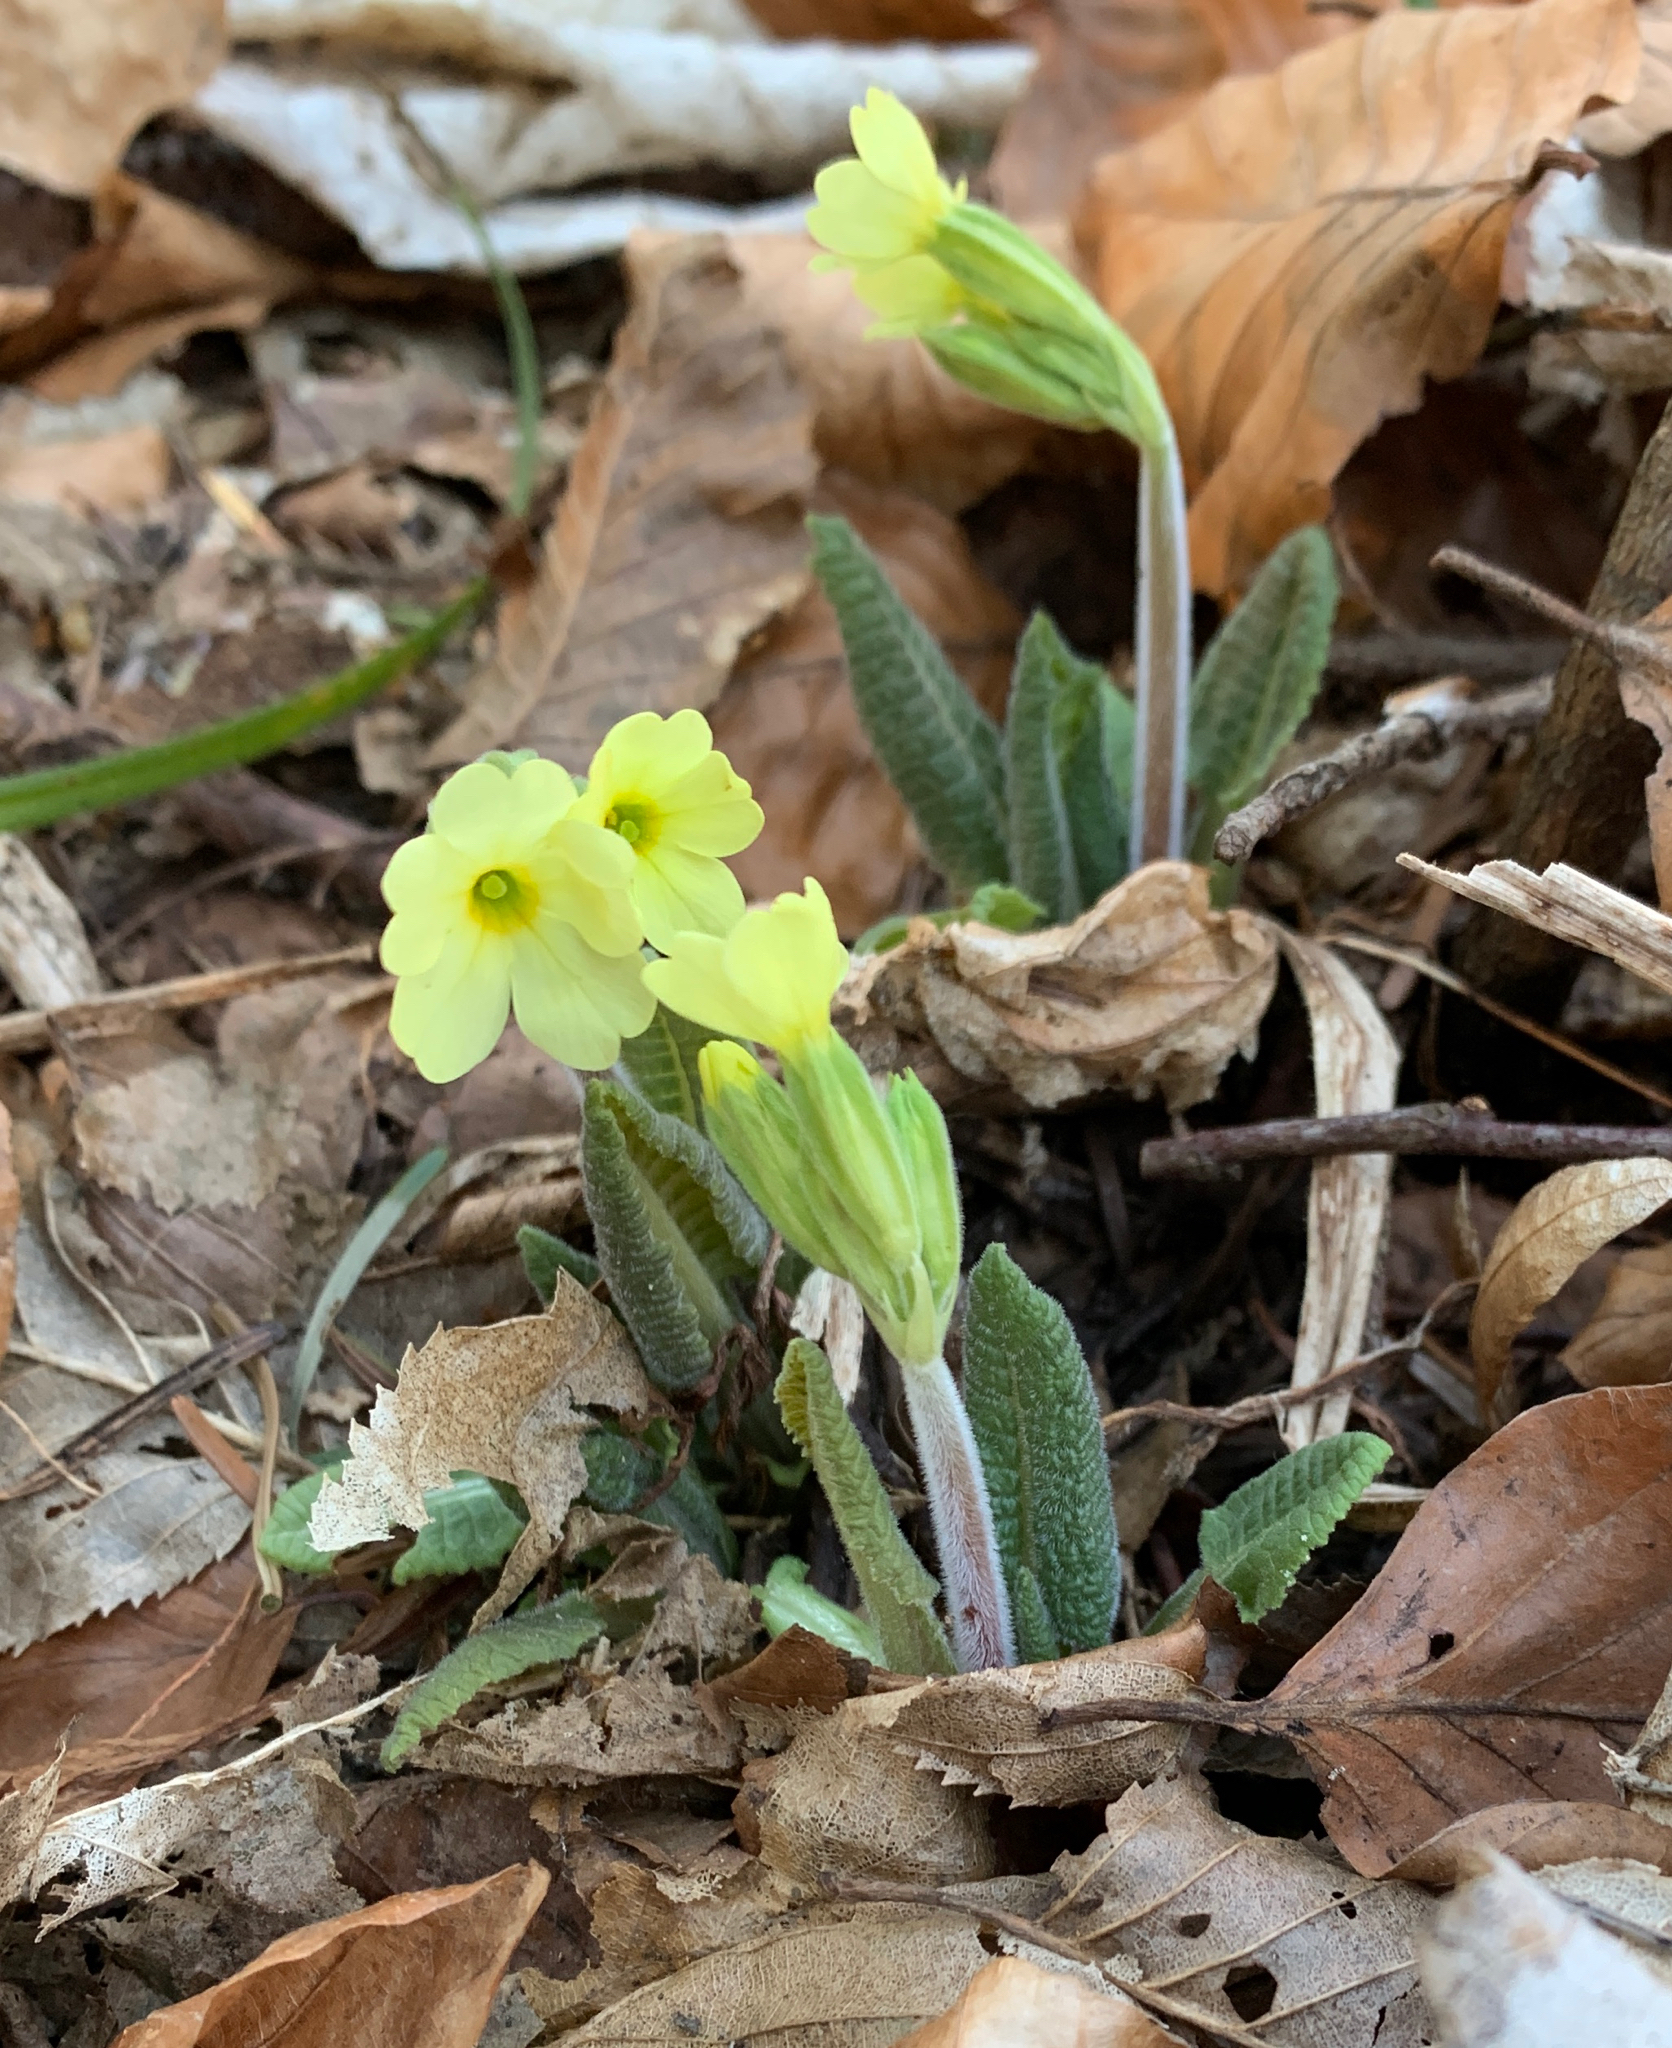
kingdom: Plantae
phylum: Tracheophyta
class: Magnoliopsida
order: Ericales
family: Primulaceae
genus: Primula
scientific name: Primula veris
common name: Cowslip
